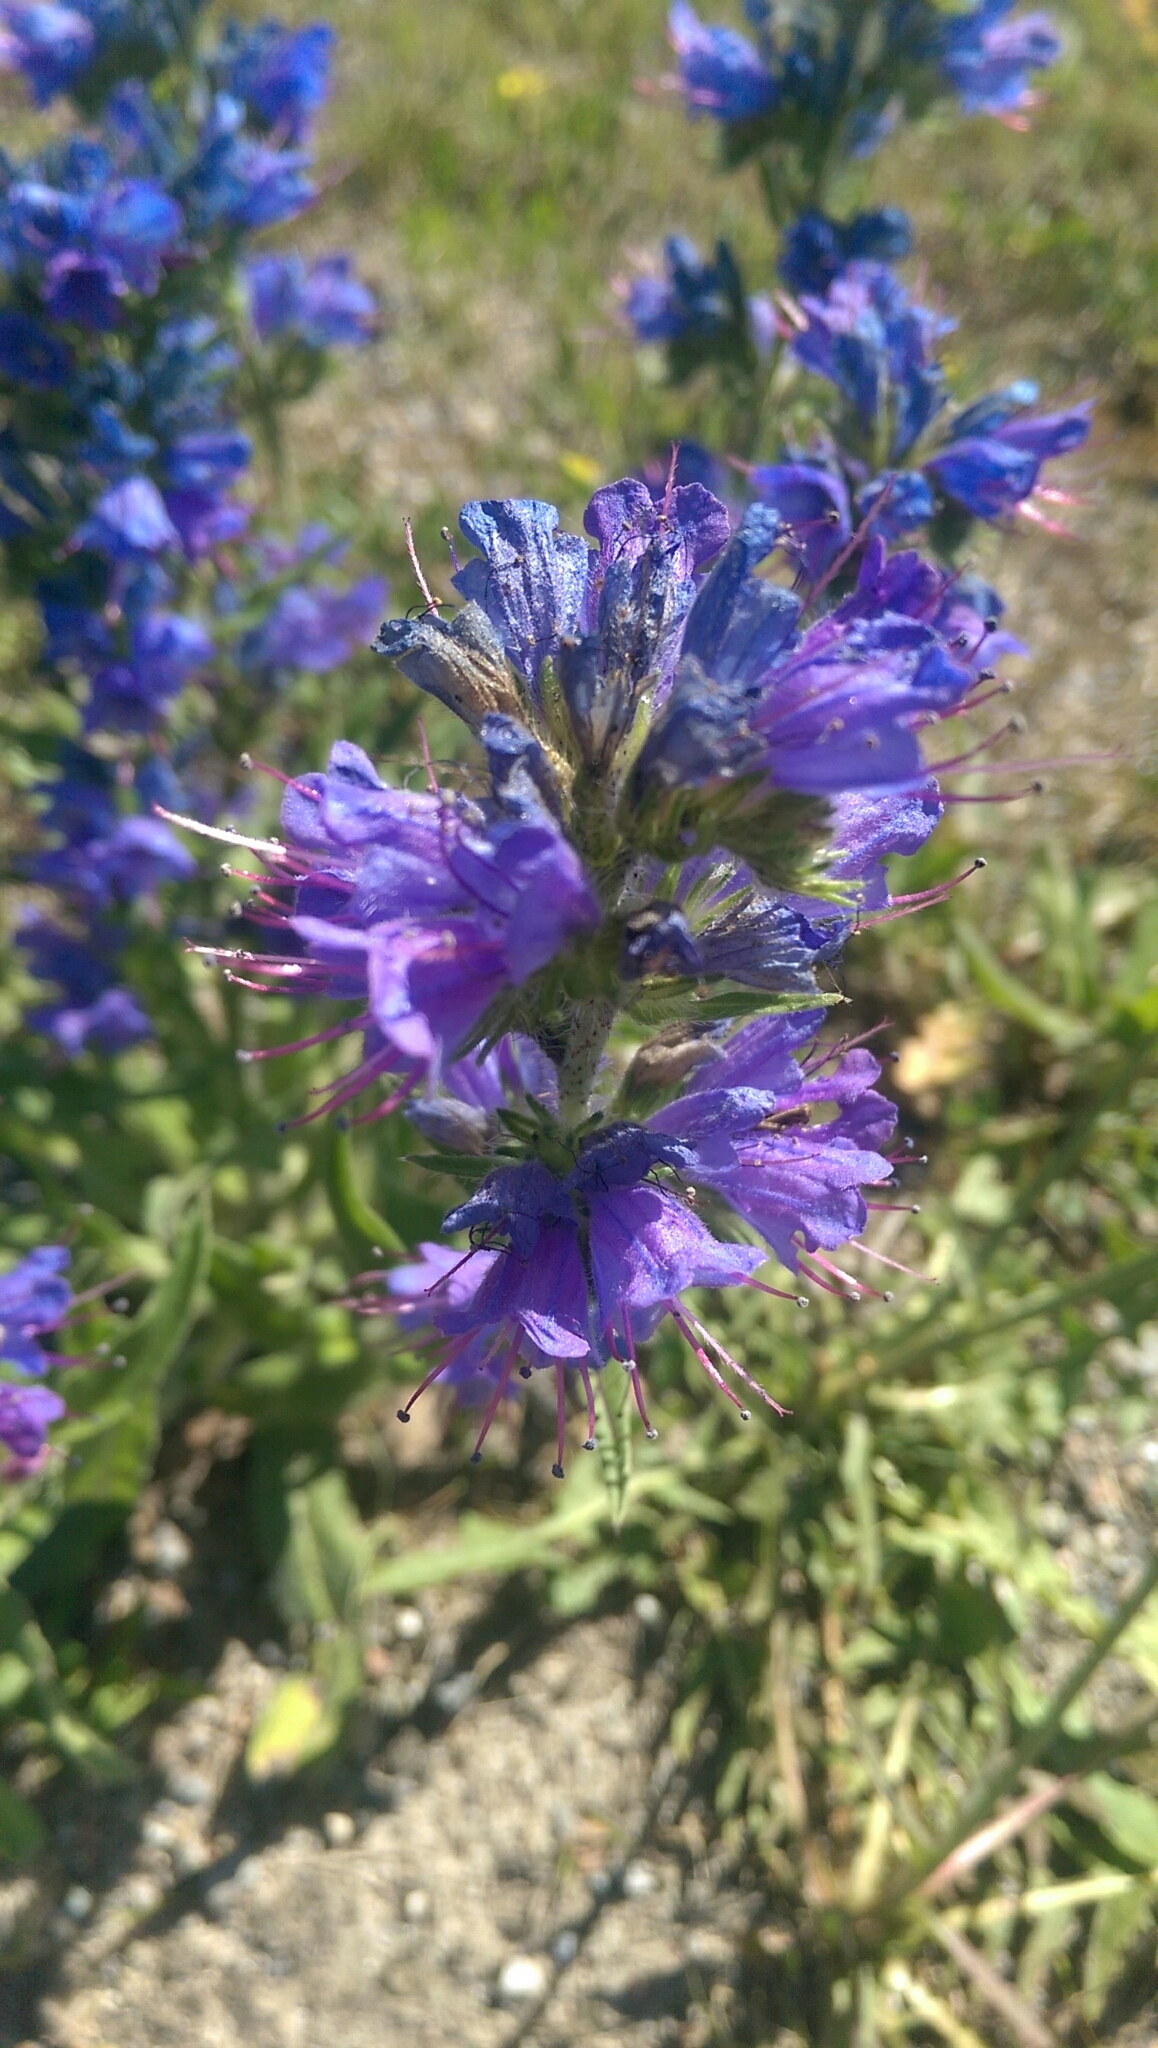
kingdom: Plantae
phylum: Tracheophyta
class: Magnoliopsida
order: Boraginales
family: Boraginaceae
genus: Echium
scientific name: Echium vulgare
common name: Common viper's bugloss
